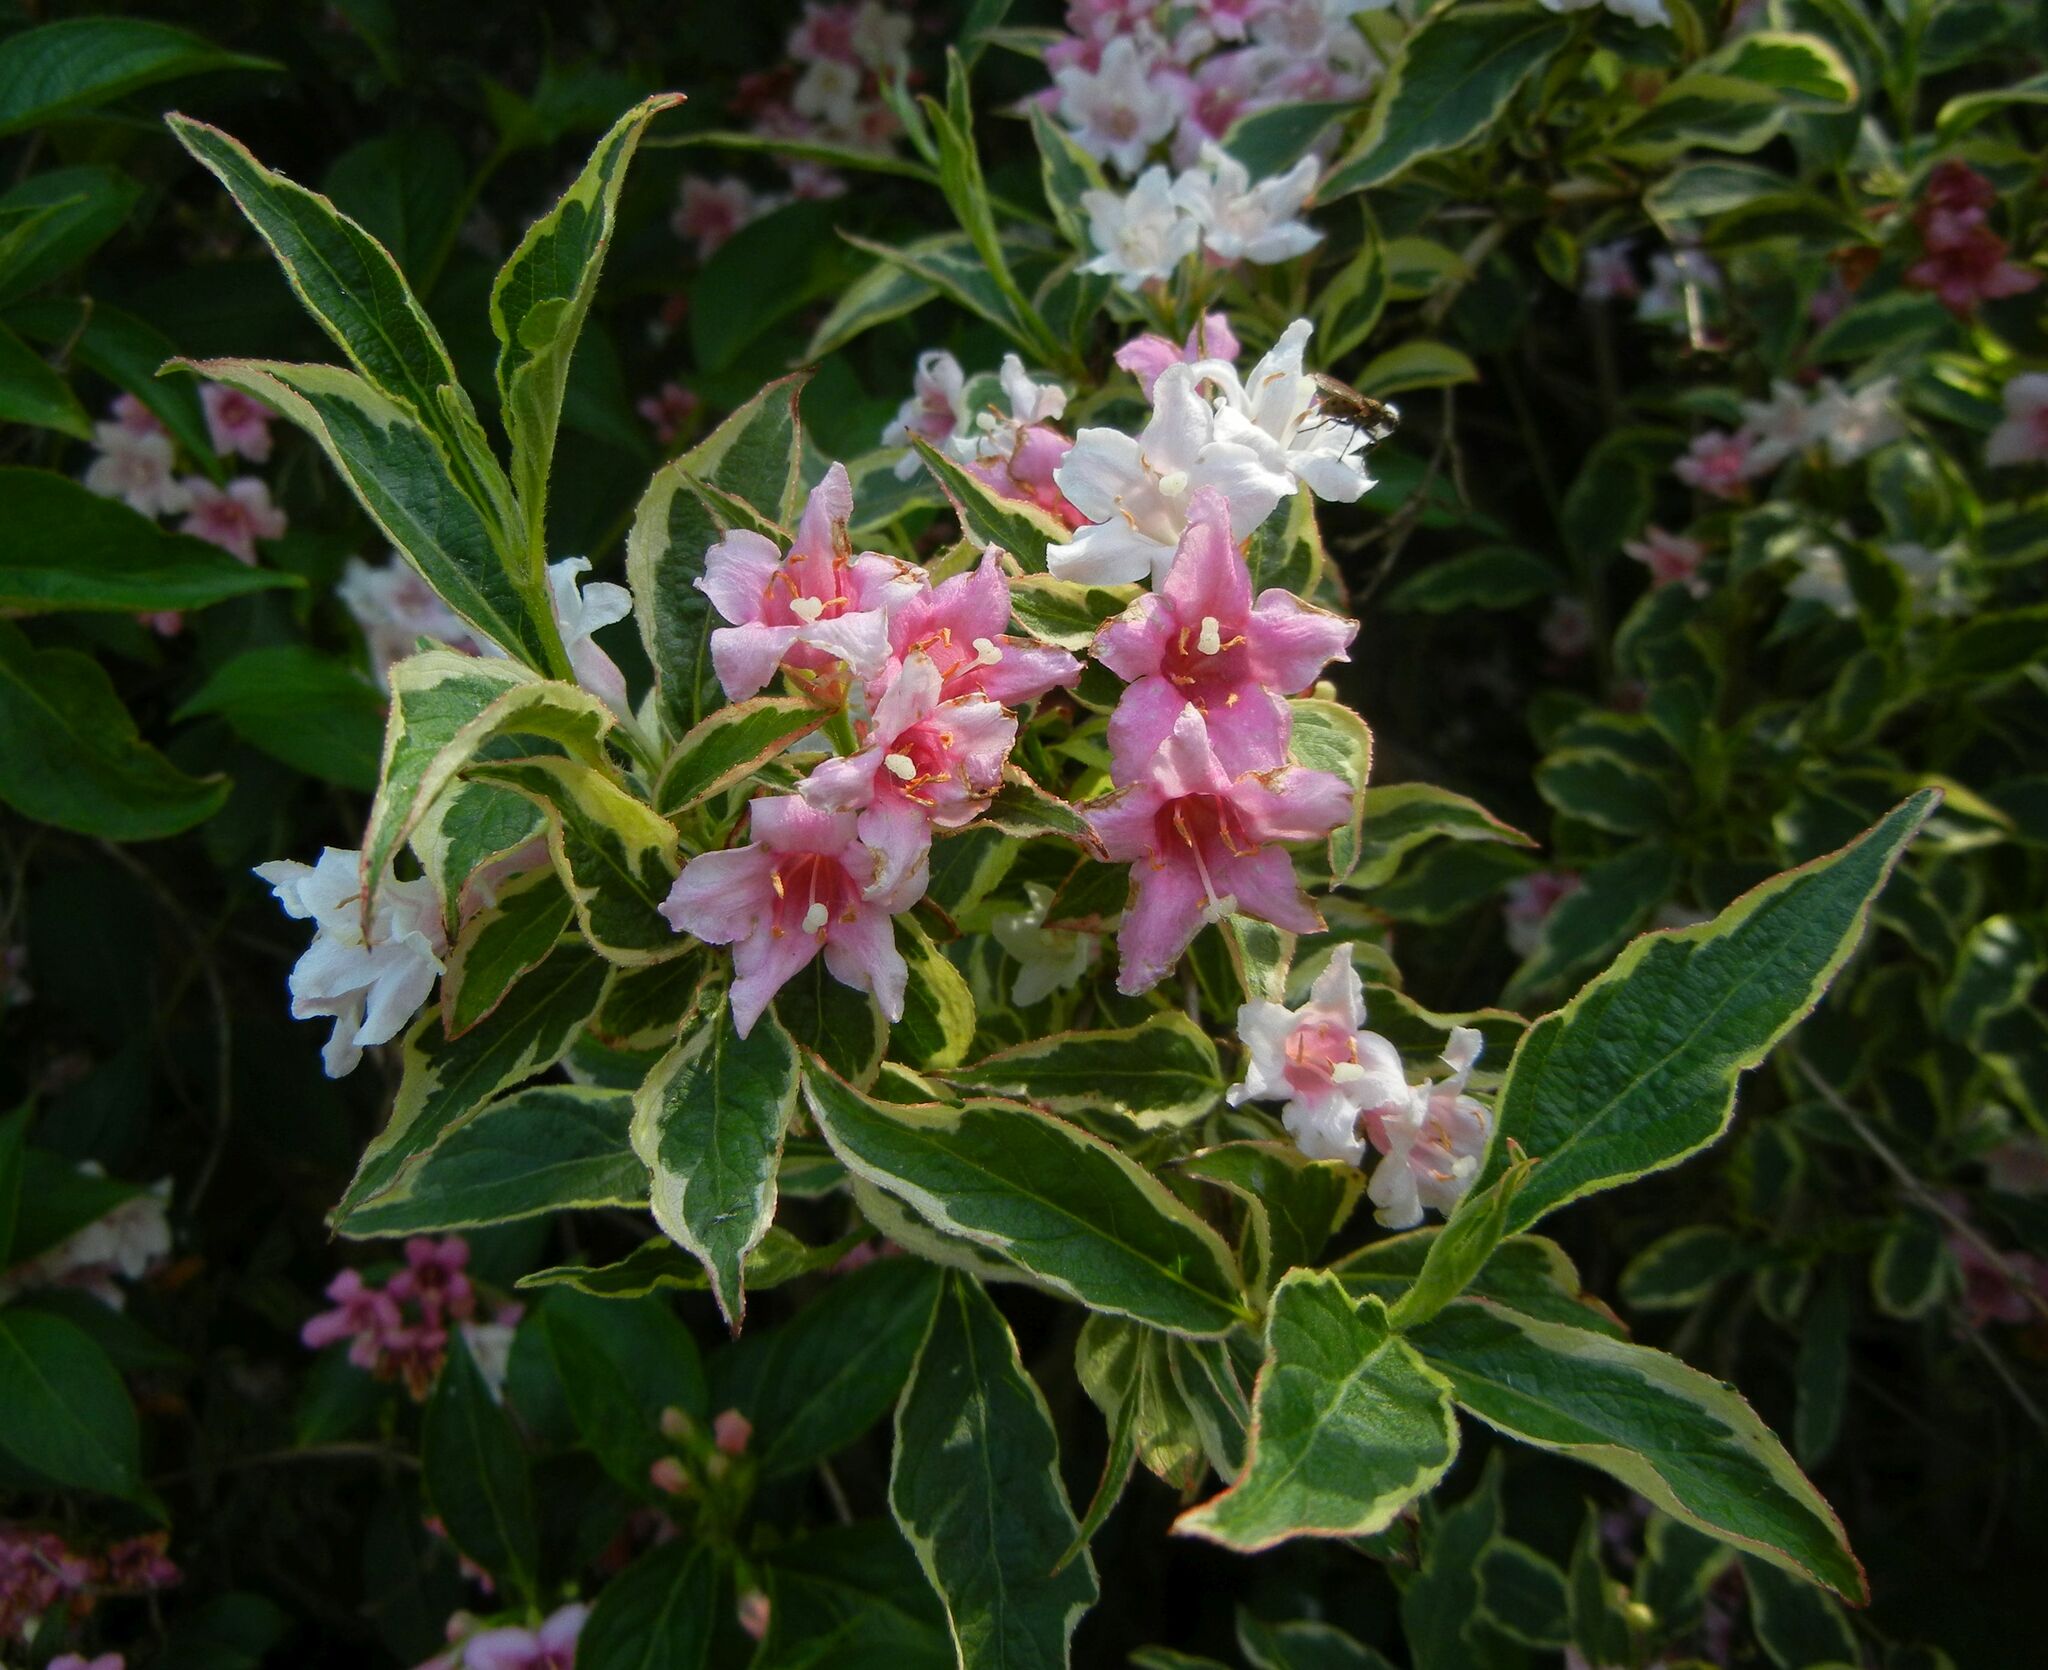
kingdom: Plantae
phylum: Tracheophyta
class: Magnoliopsida
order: Dipsacales
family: Caprifoliaceae
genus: Weigela
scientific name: Weigela florida
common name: Weigelia
